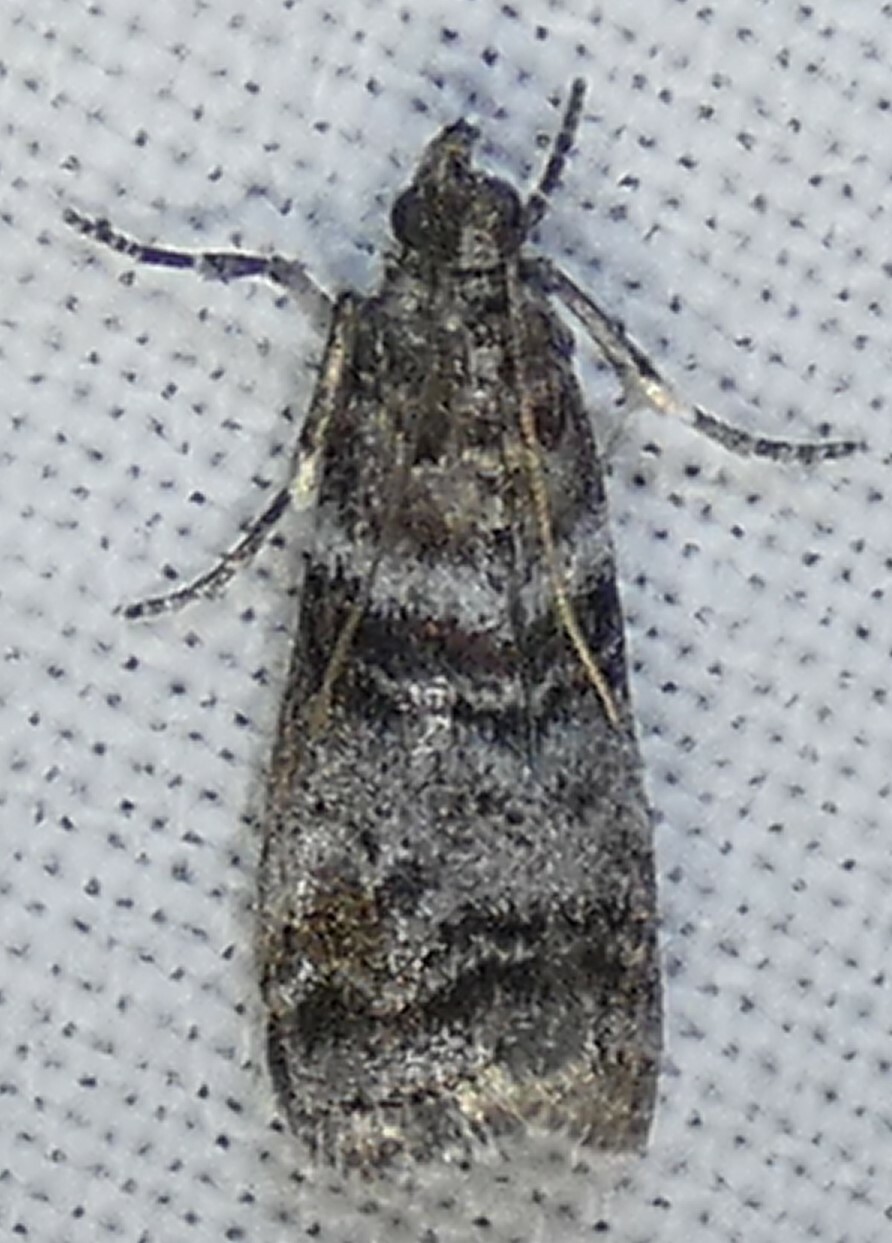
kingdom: Animalia
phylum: Arthropoda
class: Insecta
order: Lepidoptera
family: Pyralidae
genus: Sciota
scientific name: Sciota uvinella
